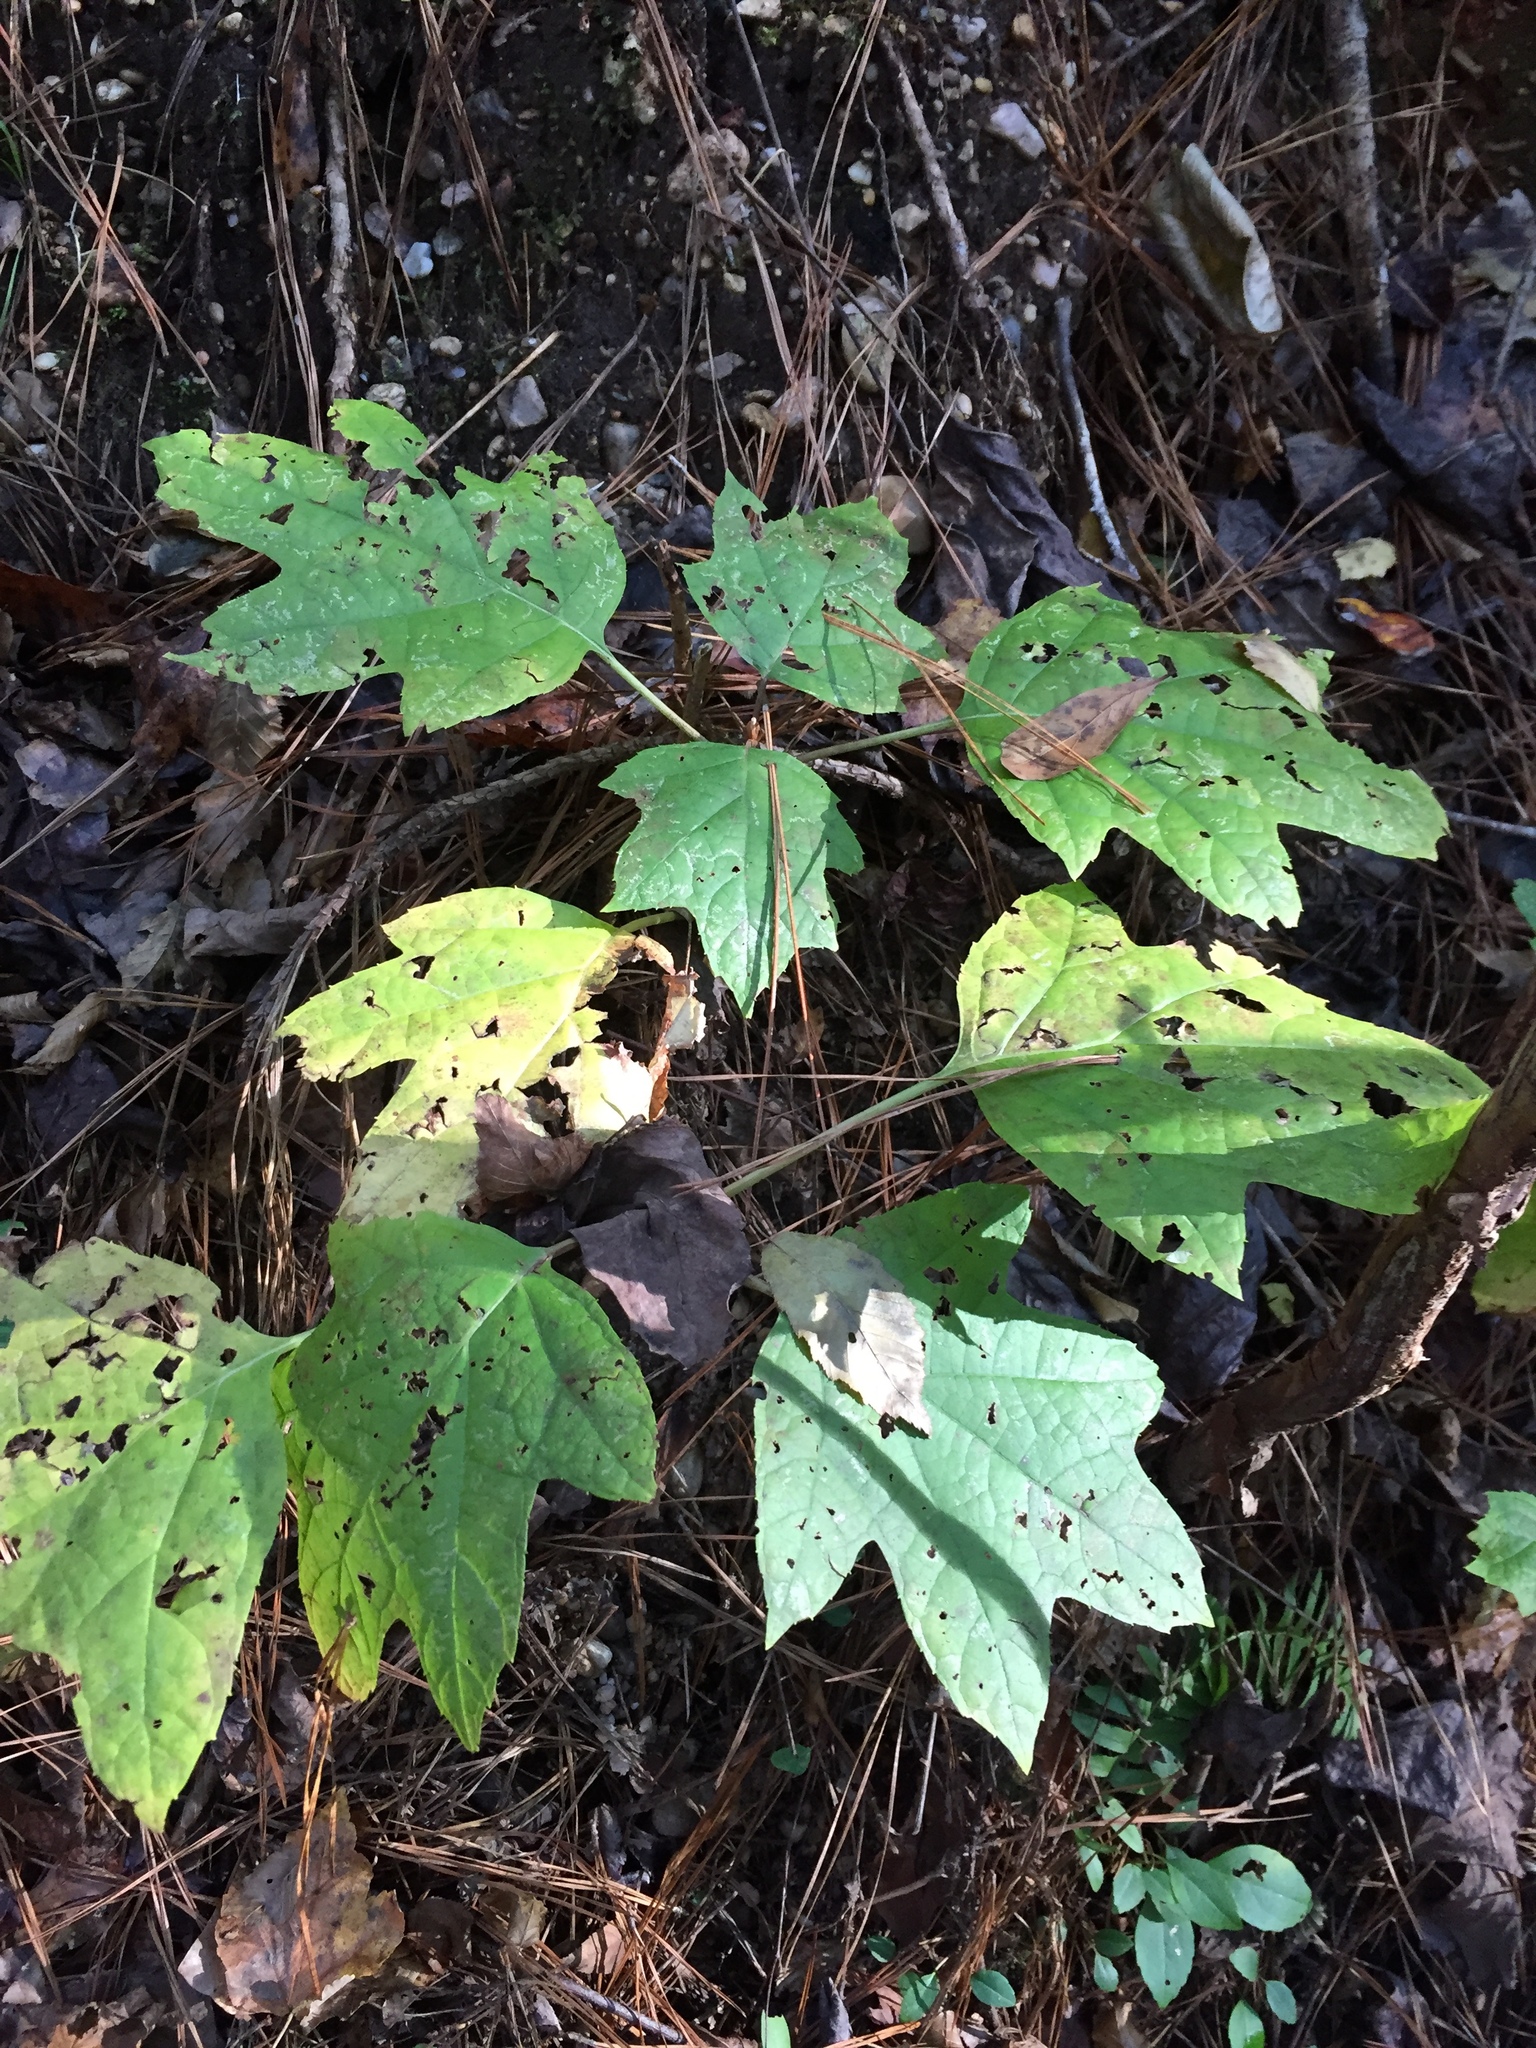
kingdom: Plantae
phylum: Tracheophyta
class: Magnoliopsida
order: Cornales
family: Hydrangeaceae
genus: Hydrangea
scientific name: Hydrangea quercifolia
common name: Oak-leaf hydrangea
